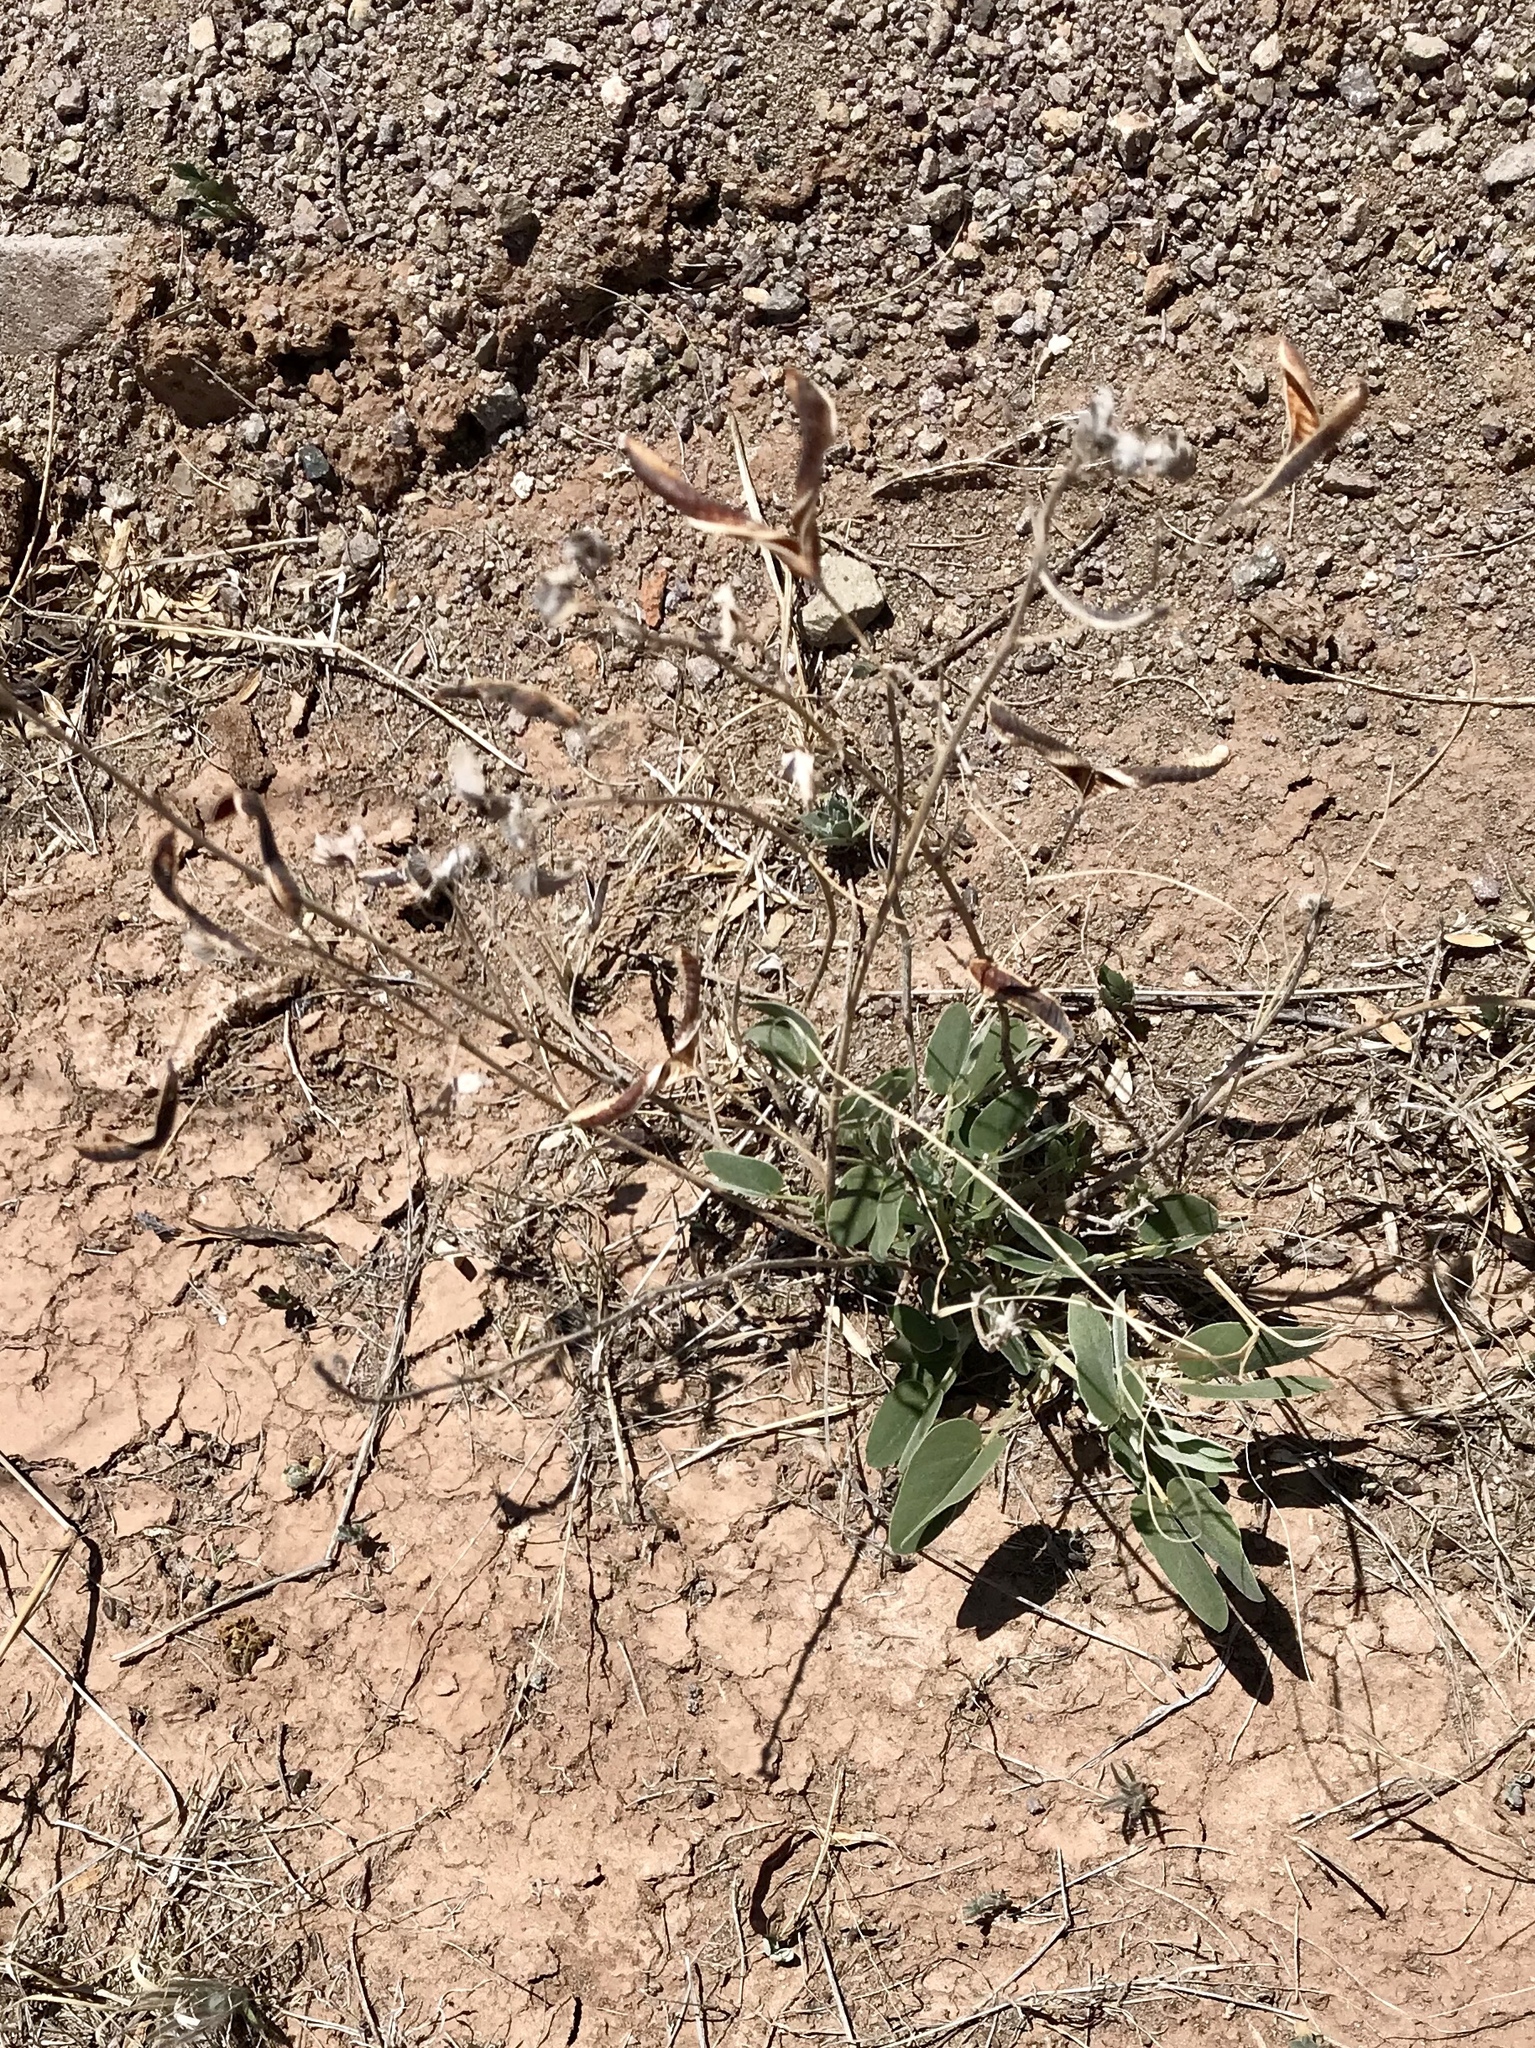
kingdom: Plantae
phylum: Tracheophyta
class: Magnoliopsida
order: Fabales
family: Fabaceae
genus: Senna
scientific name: Senna bauhinioides
